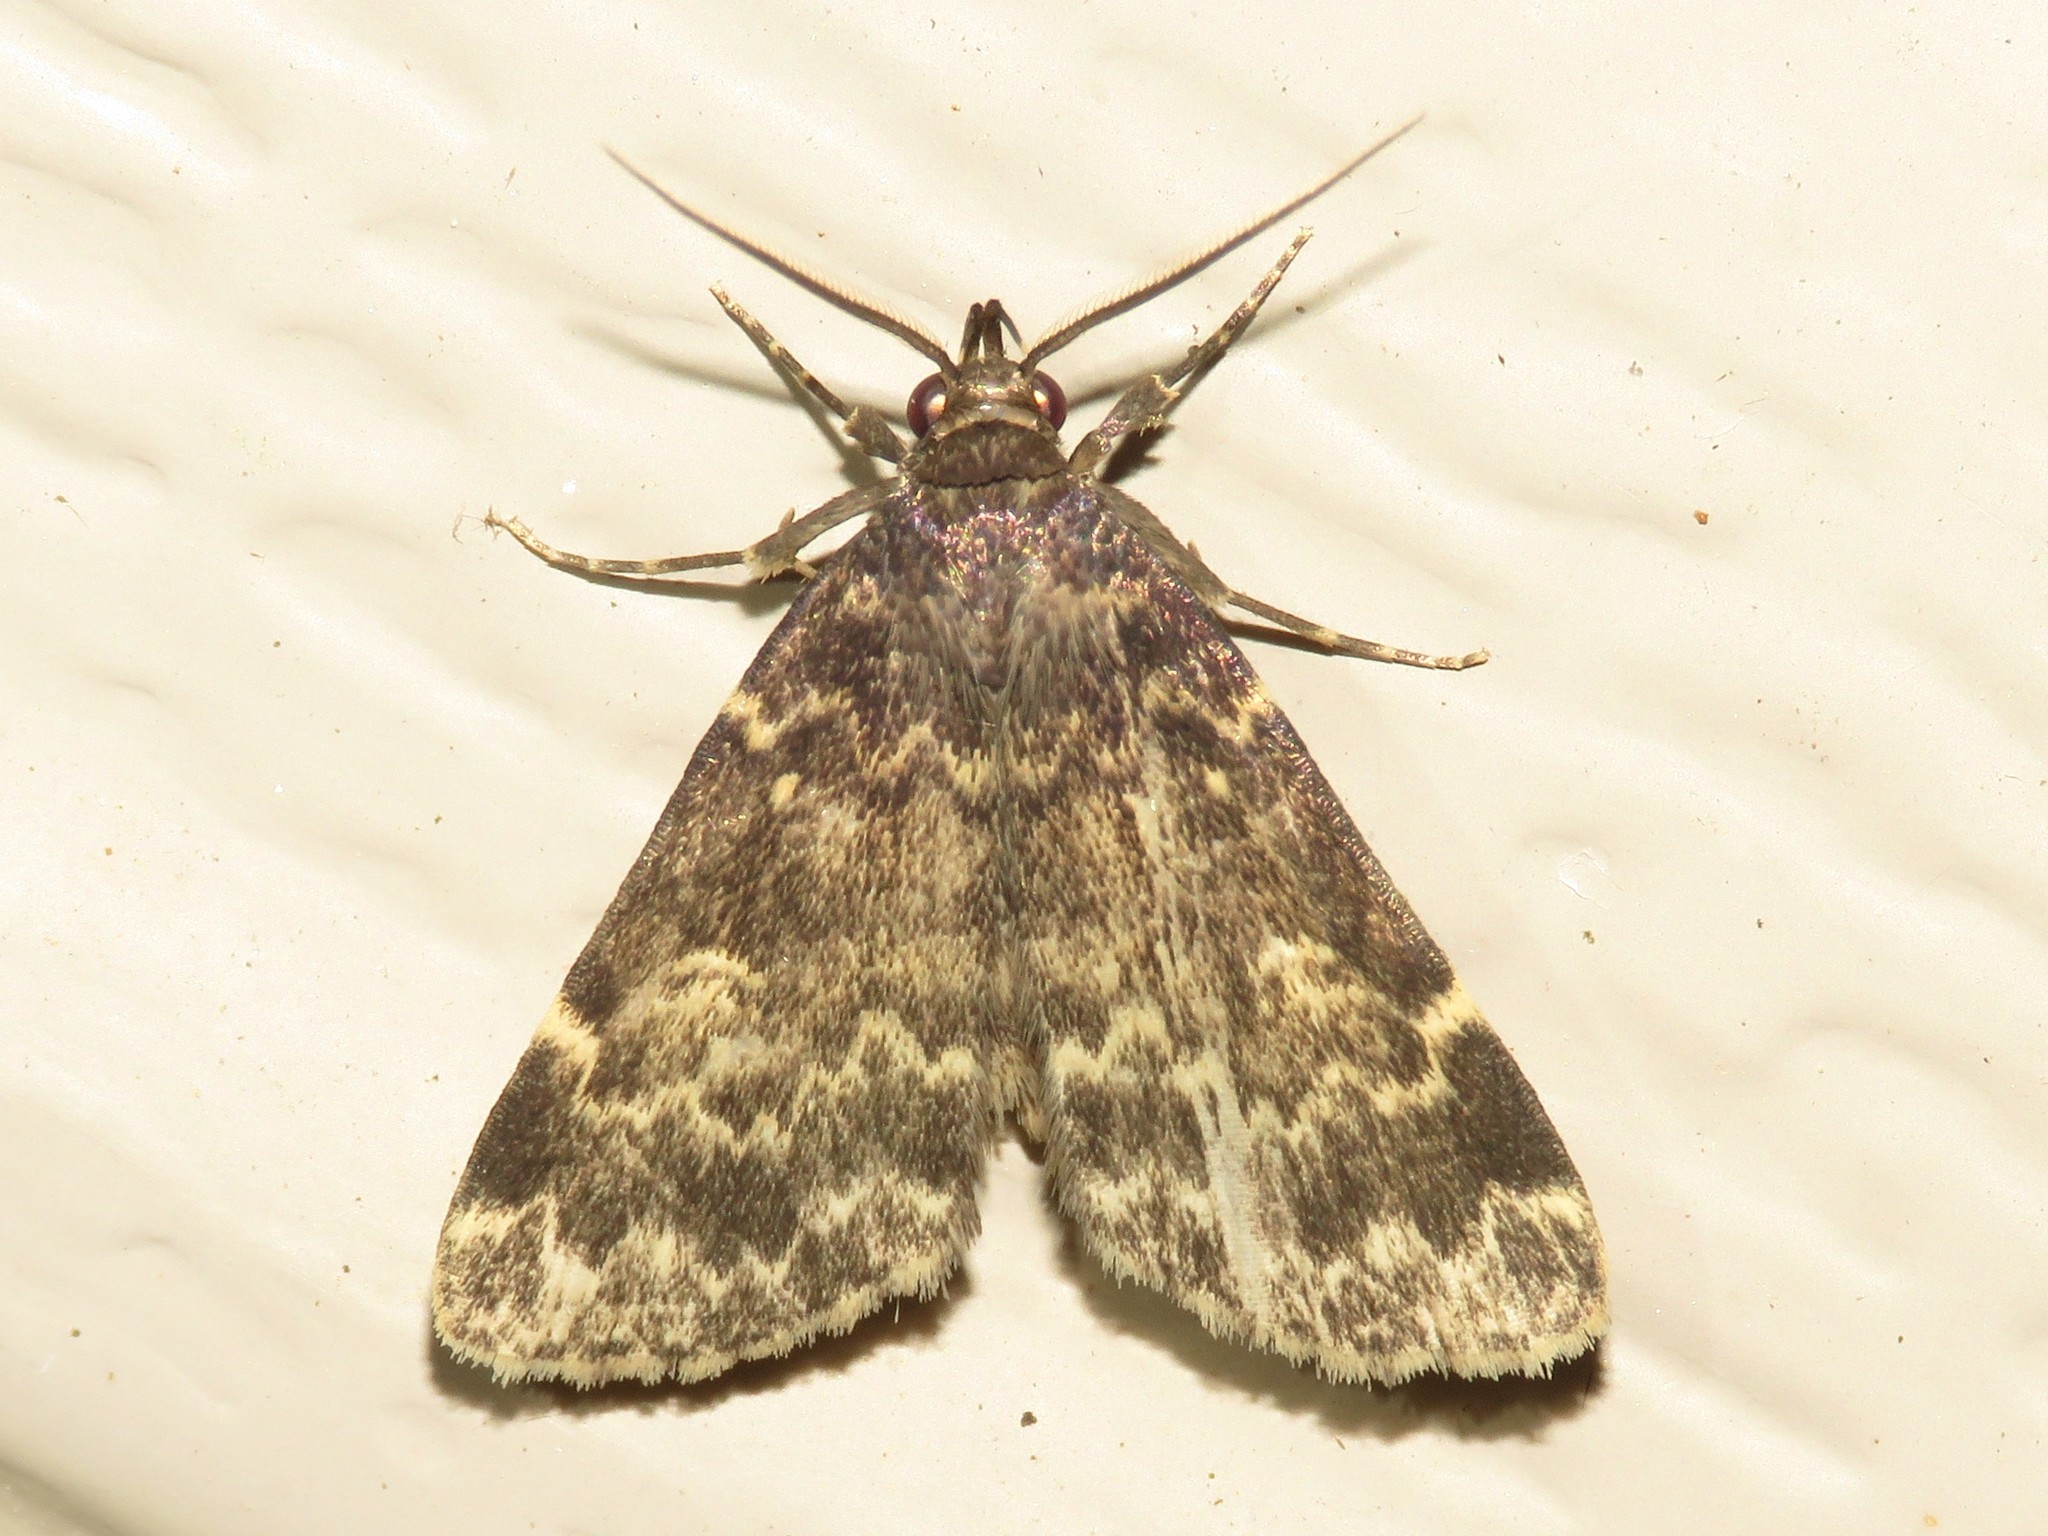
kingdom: Animalia
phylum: Arthropoda
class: Insecta
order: Lepidoptera
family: Erebidae
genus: Idia
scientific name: Idia lubricalis
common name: Twin-striped tabby
